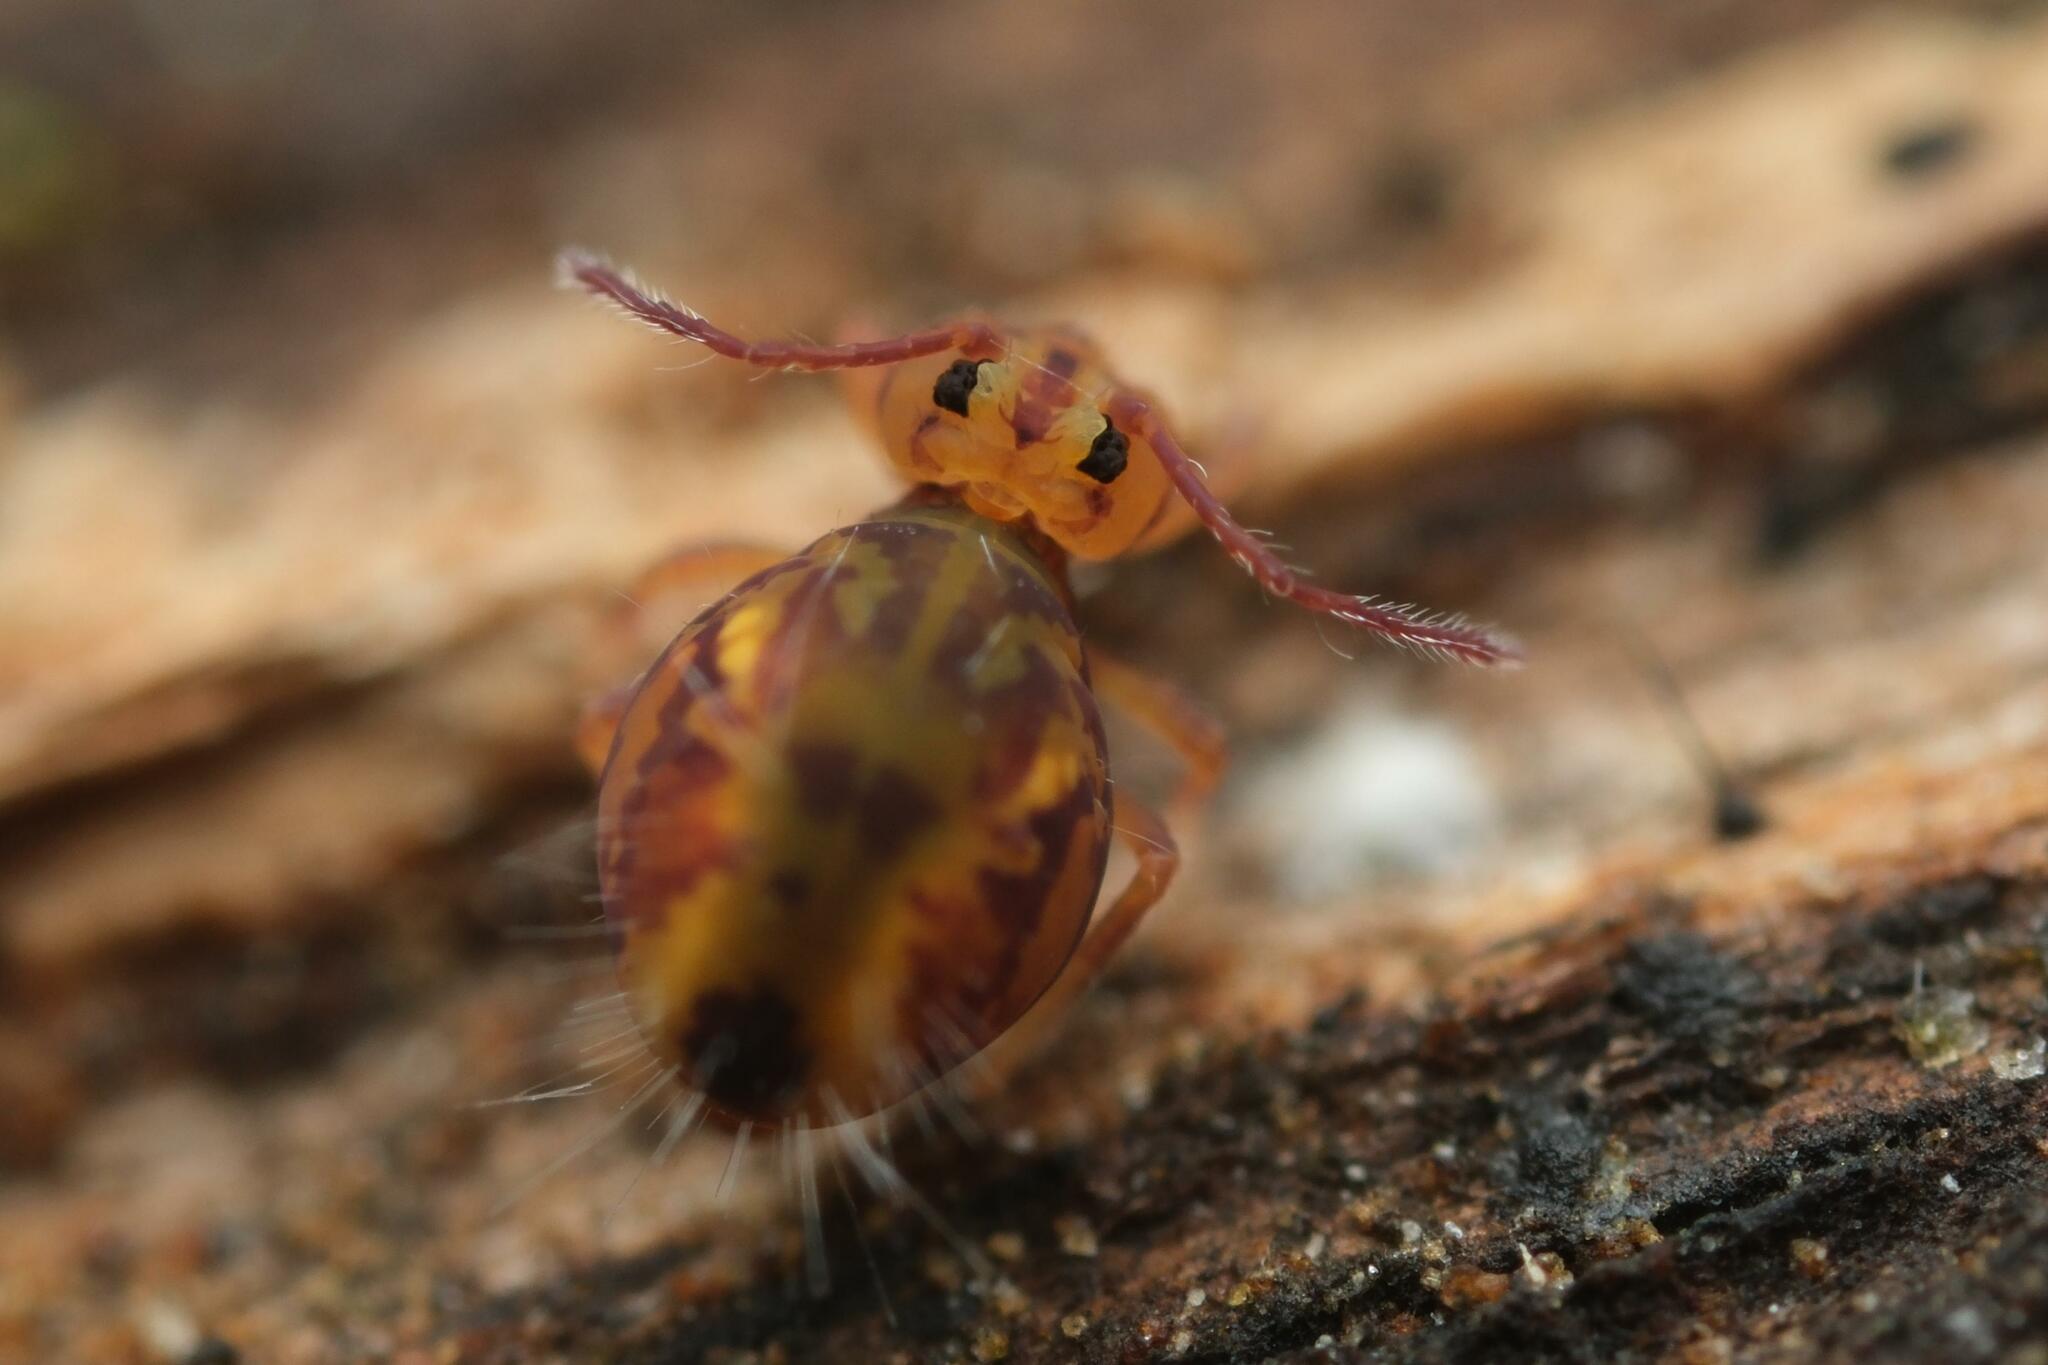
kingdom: Animalia
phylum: Arthropoda
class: Collembola
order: Symphypleona
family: Dicyrtomidae
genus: Dicyrtomina
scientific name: Dicyrtomina ornata
